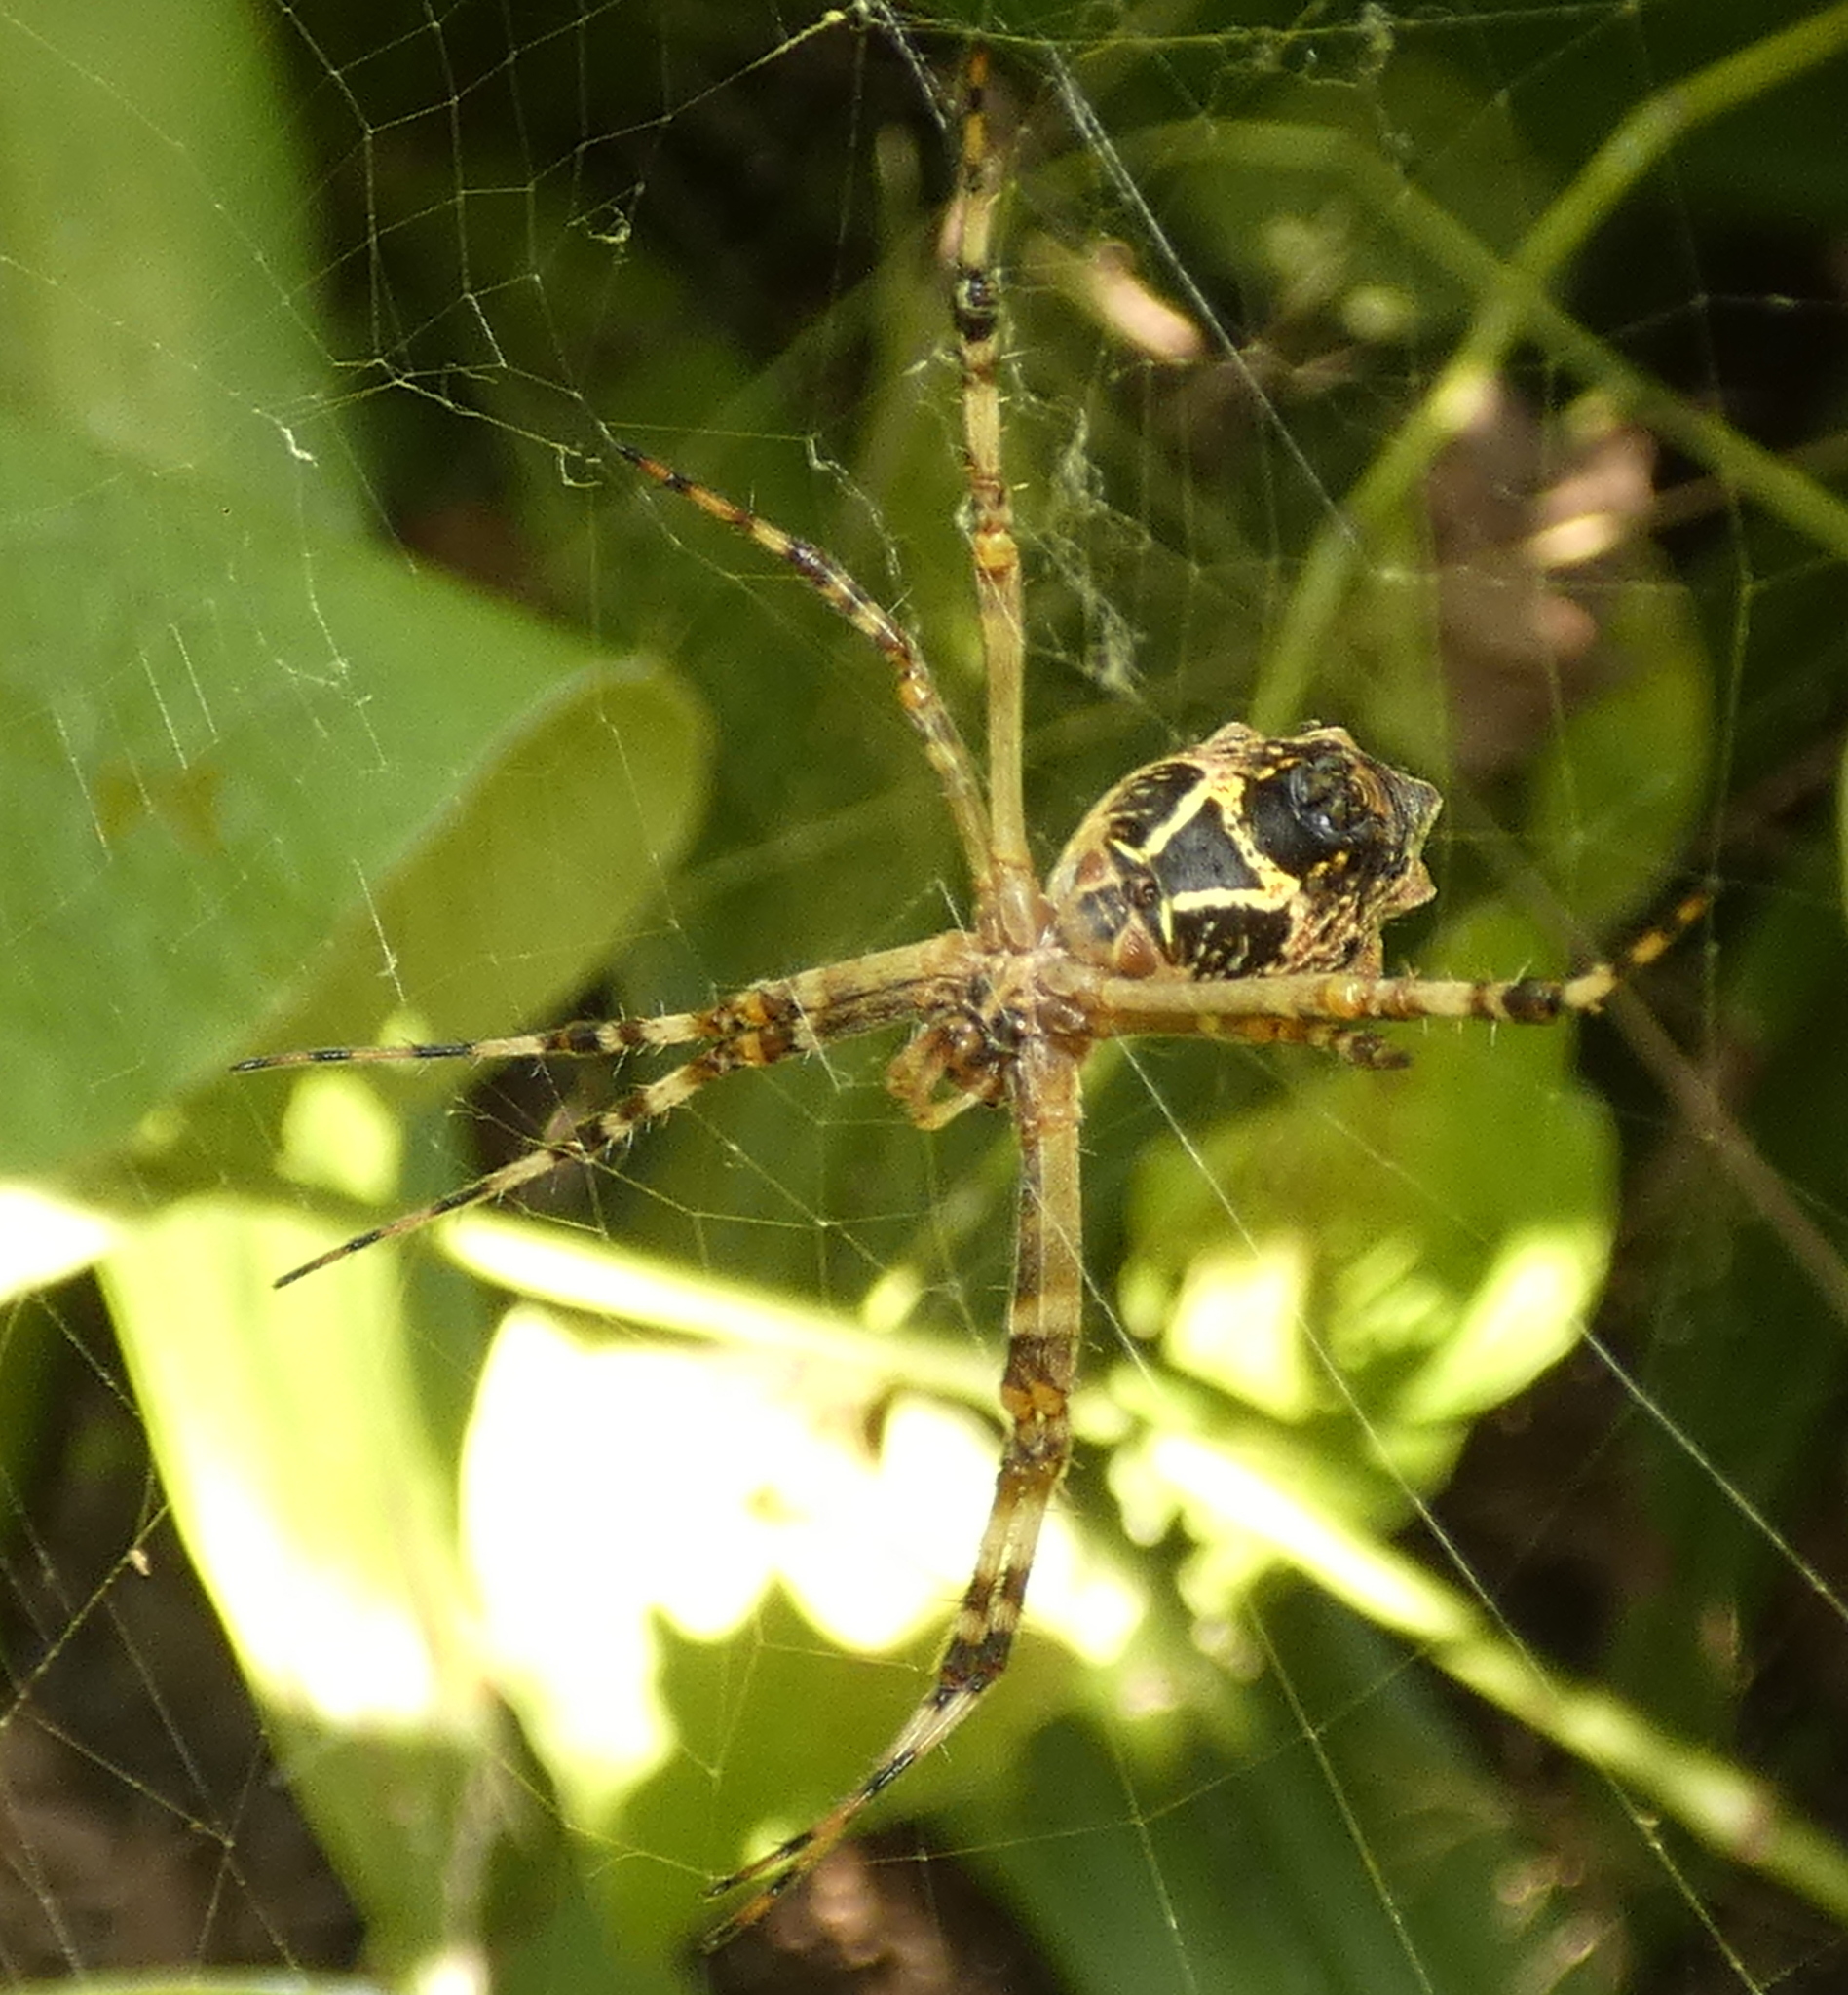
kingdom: Animalia
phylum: Arthropoda
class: Arachnida
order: Araneae
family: Araneidae
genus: Argiope
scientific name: Argiope argentata
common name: Orb weavers
